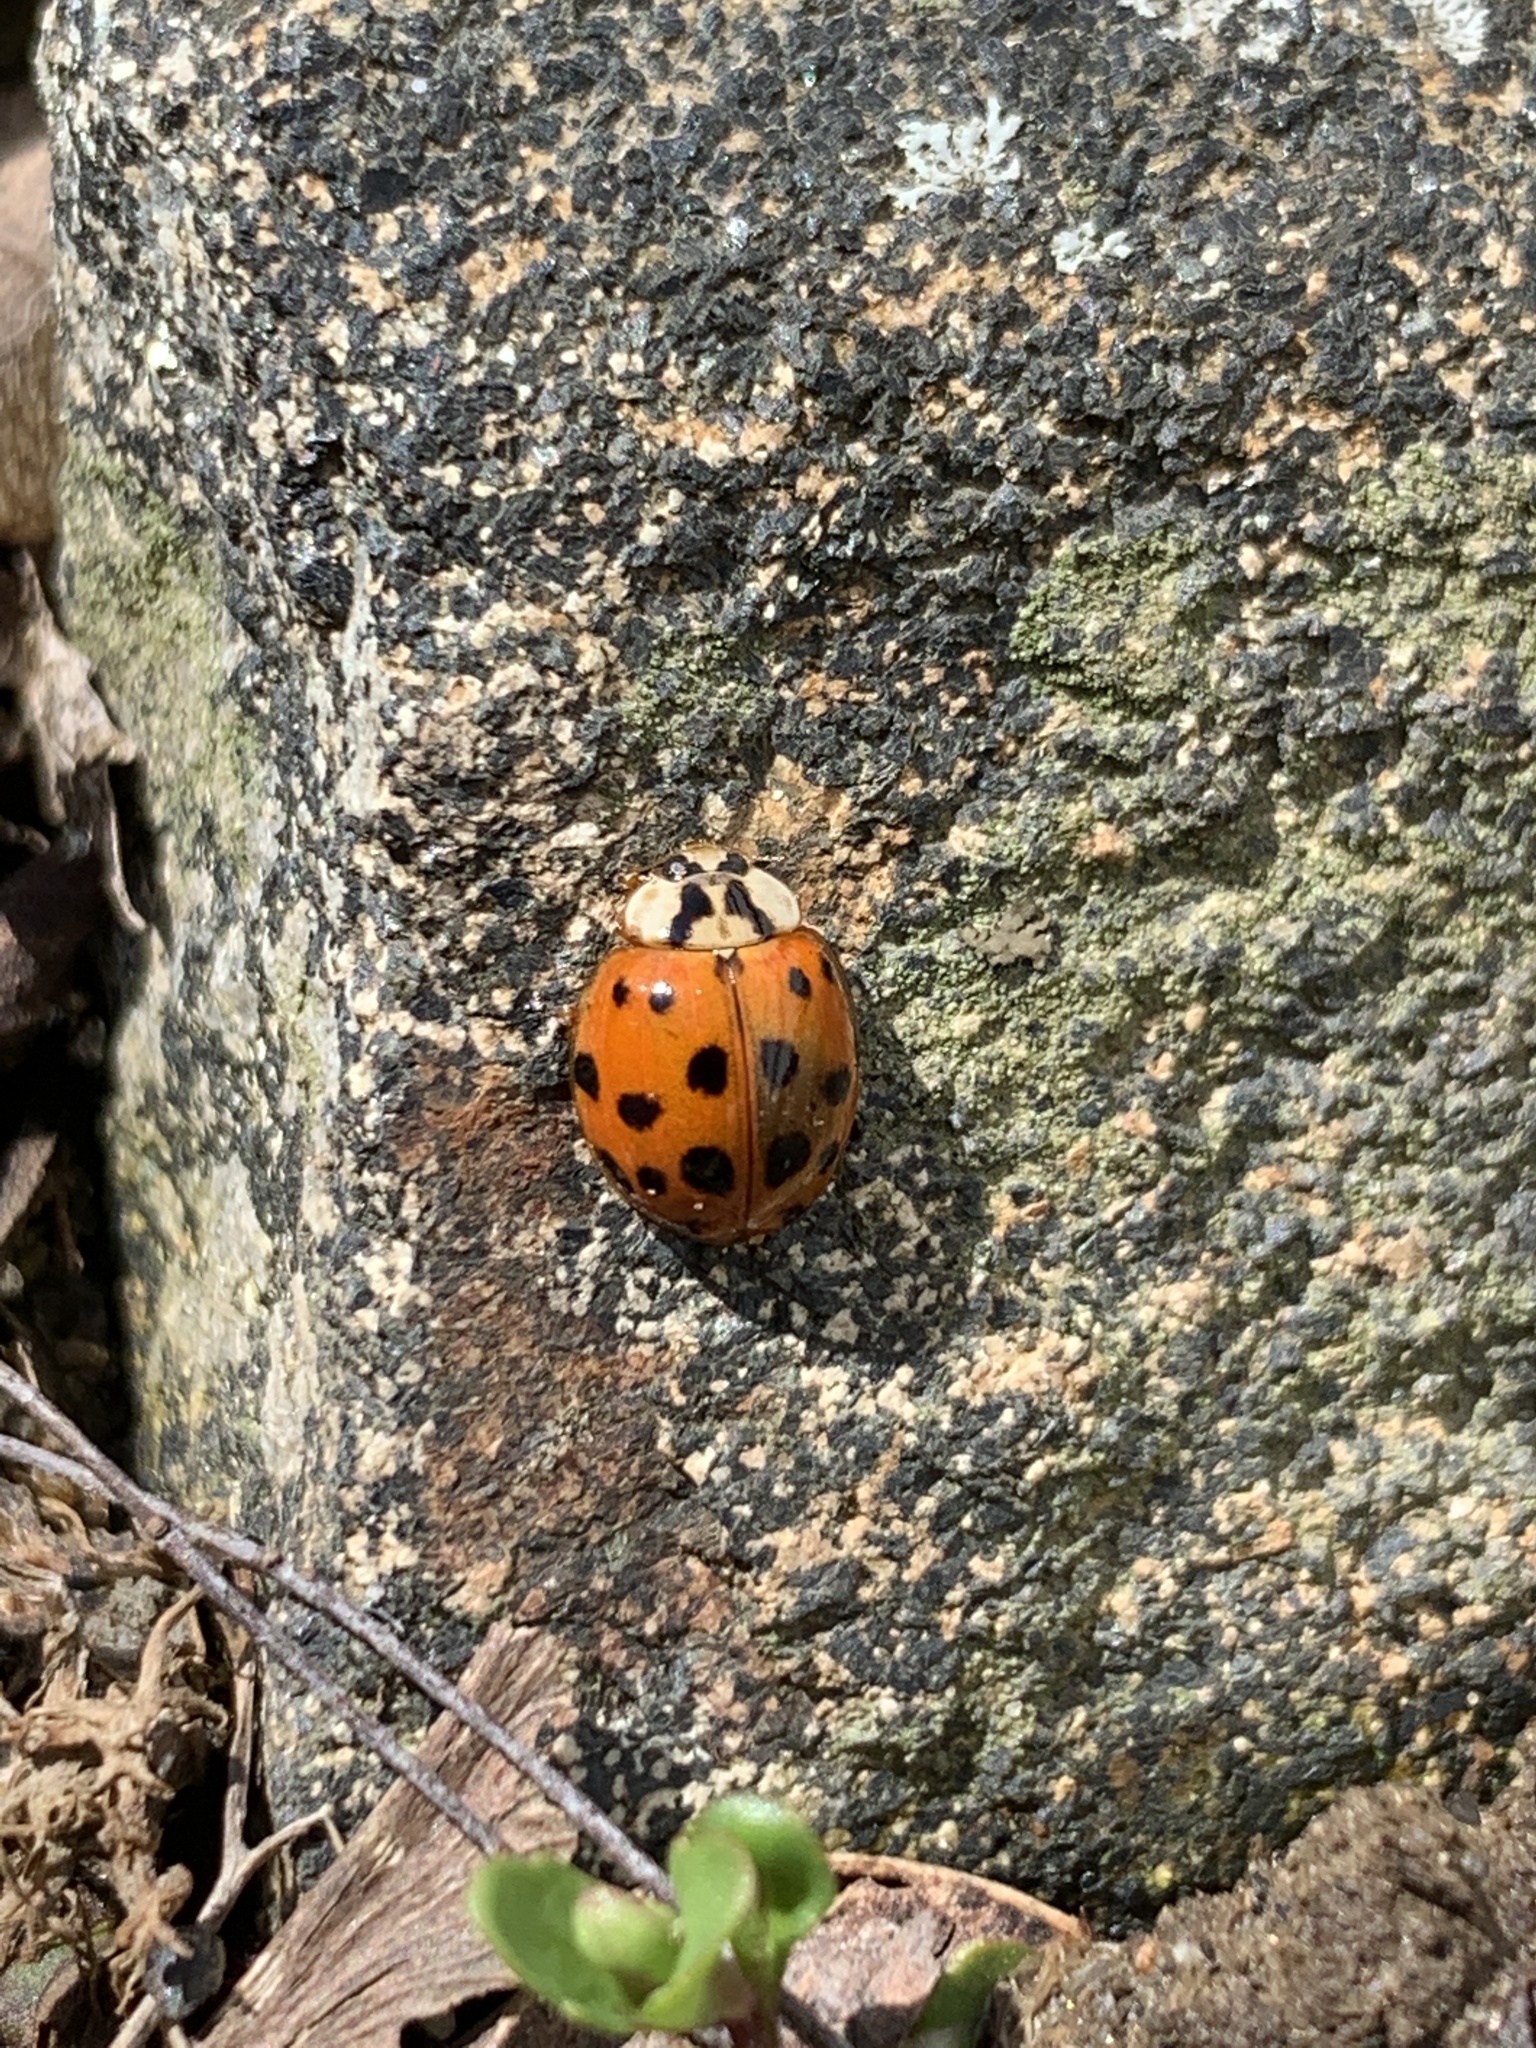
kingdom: Animalia
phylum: Arthropoda
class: Insecta
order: Coleoptera
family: Coccinellidae
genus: Harmonia
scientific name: Harmonia axyridis
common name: Harlequin ladybird
